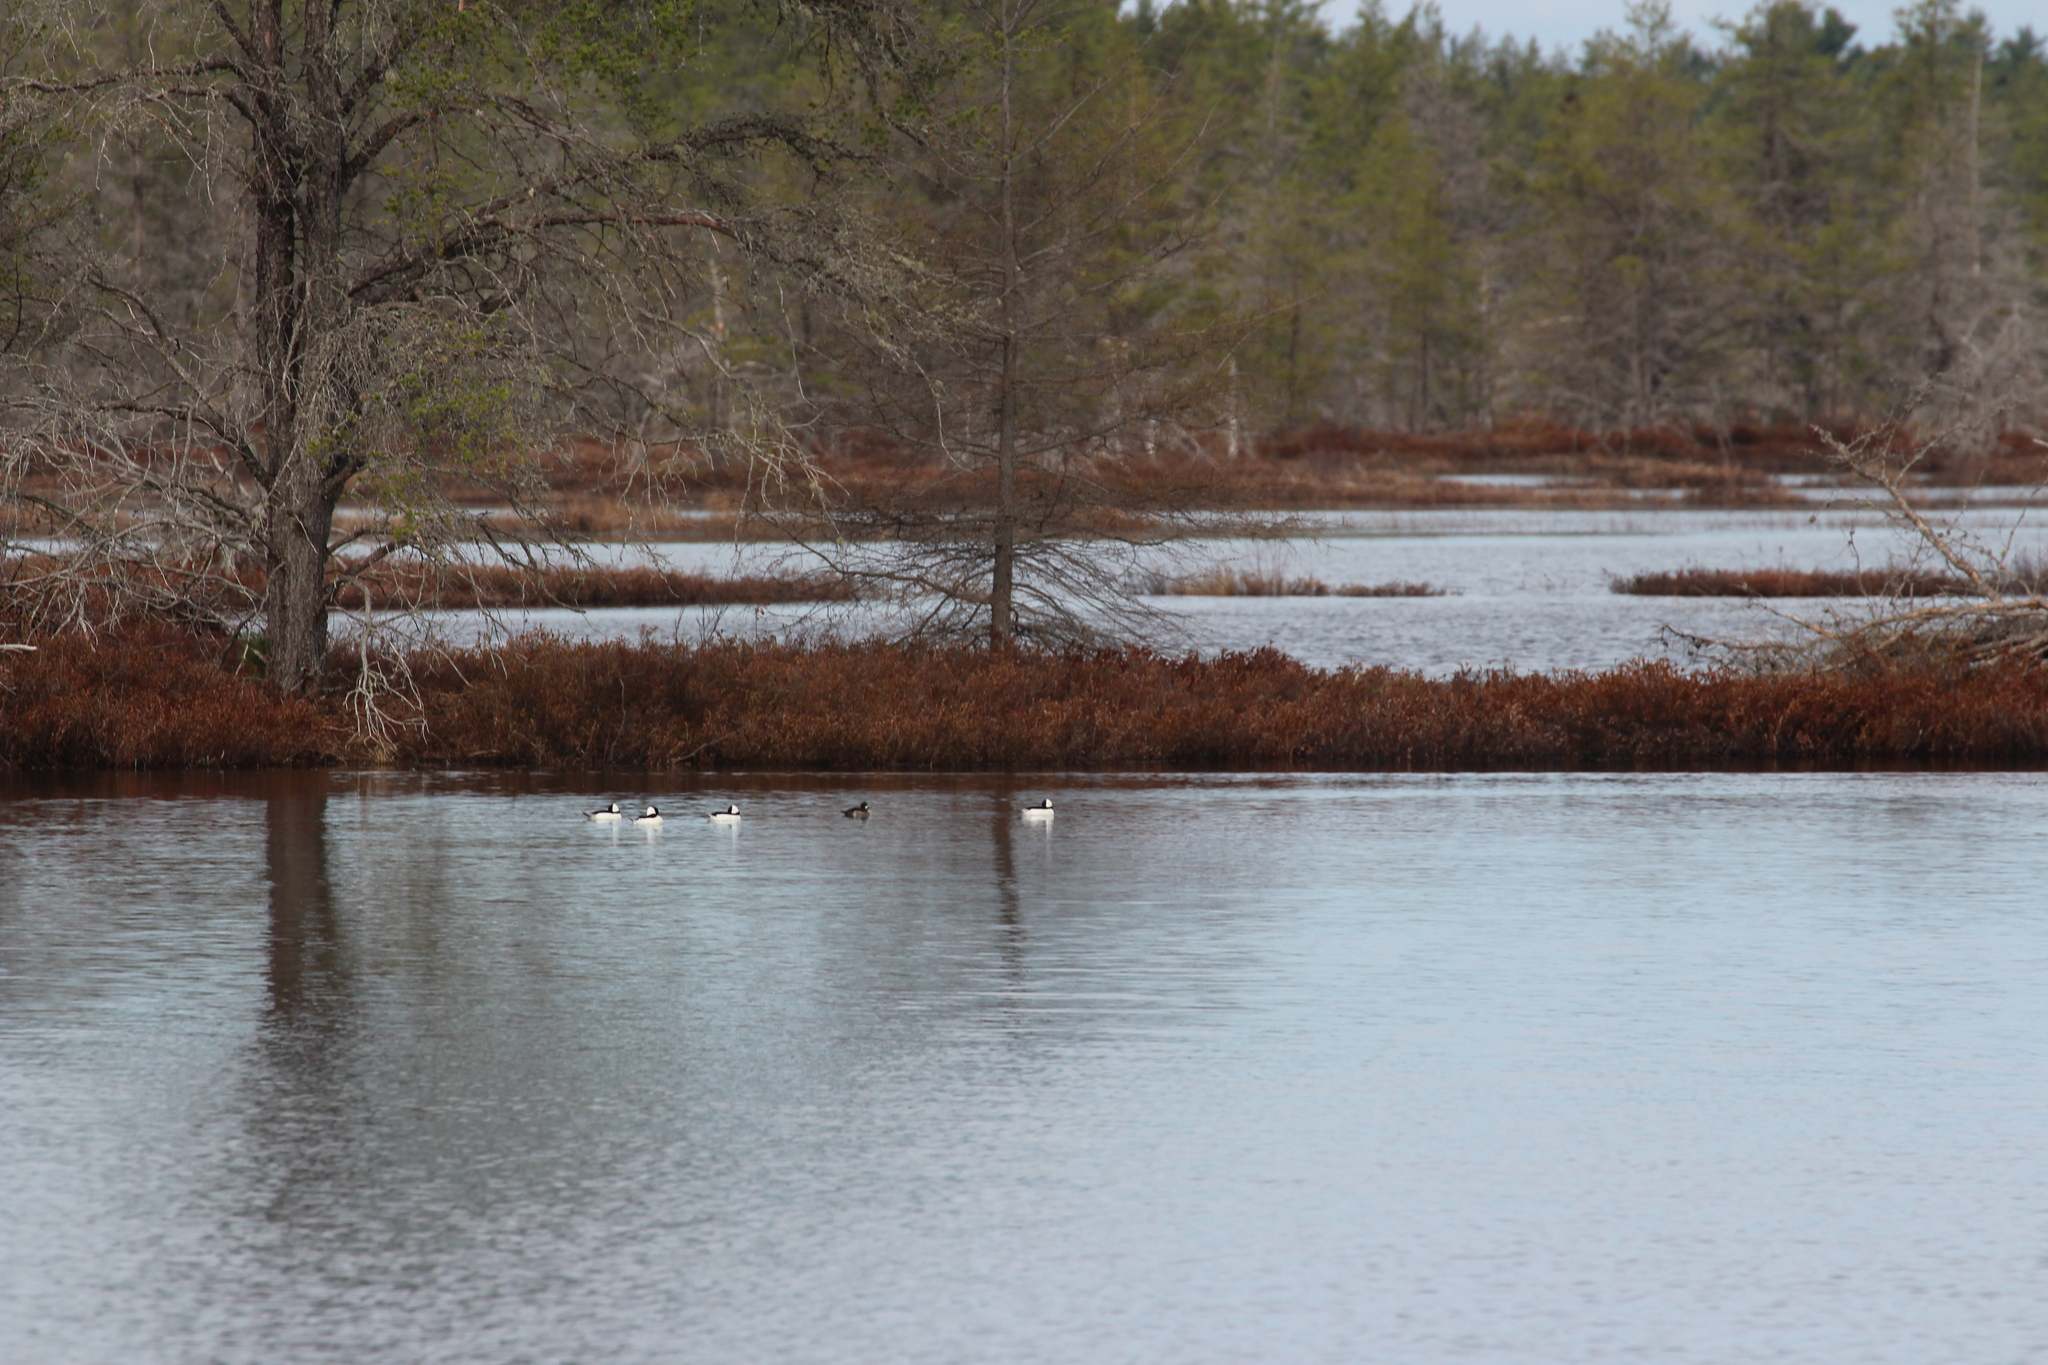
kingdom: Animalia
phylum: Chordata
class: Aves
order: Anseriformes
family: Anatidae
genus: Bucephala
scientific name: Bucephala albeola
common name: Bufflehead
